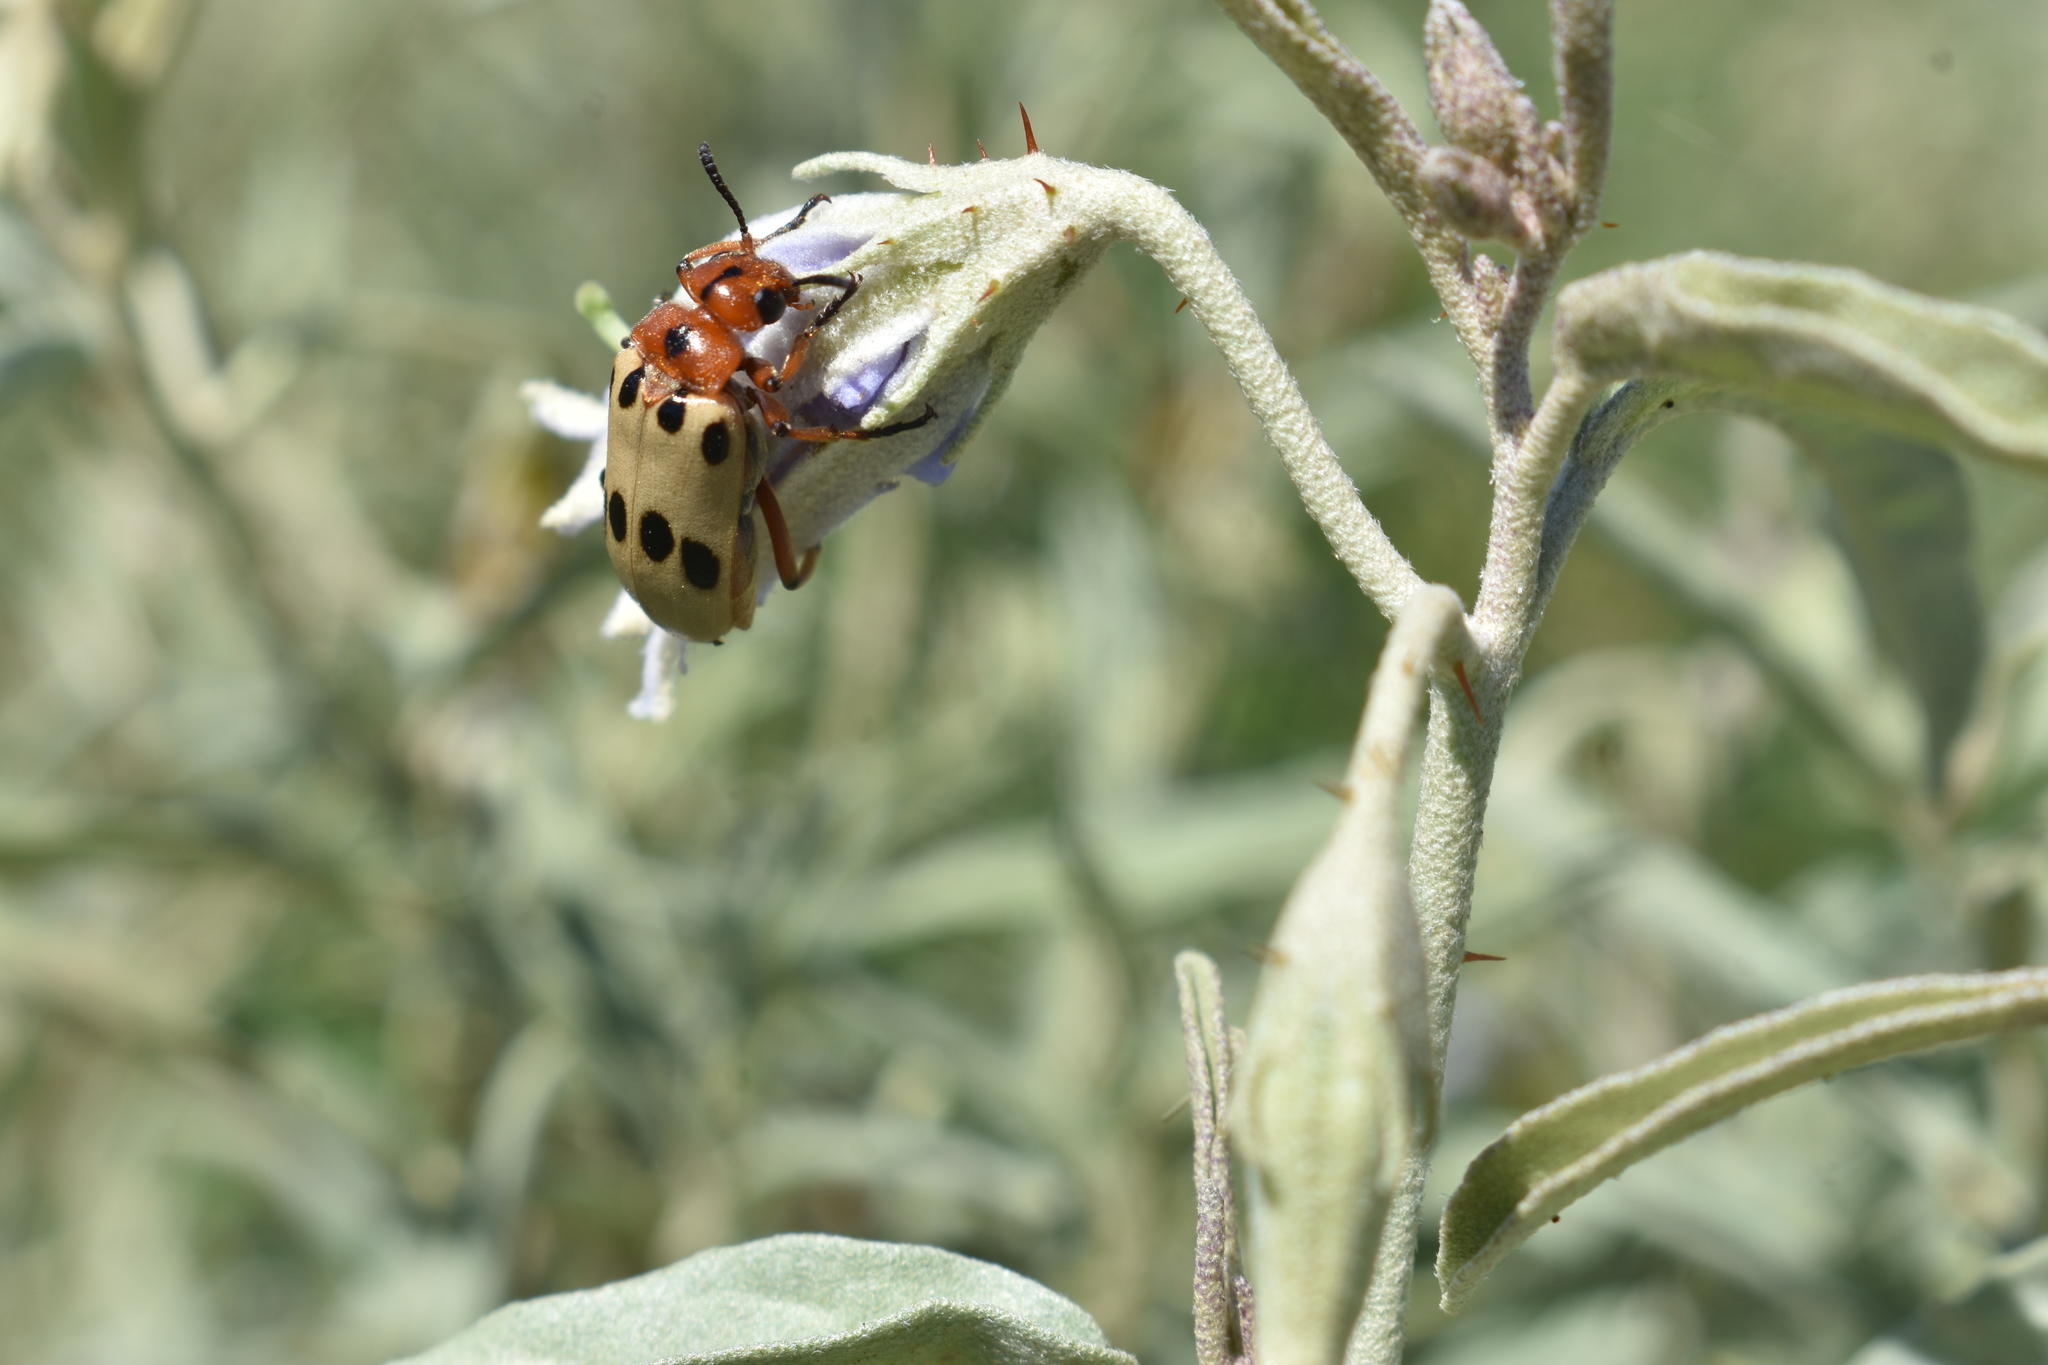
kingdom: Animalia
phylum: Arthropoda
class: Insecta
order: Coleoptera
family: Meloidae
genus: Tetraonyx
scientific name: Tetraonyx
